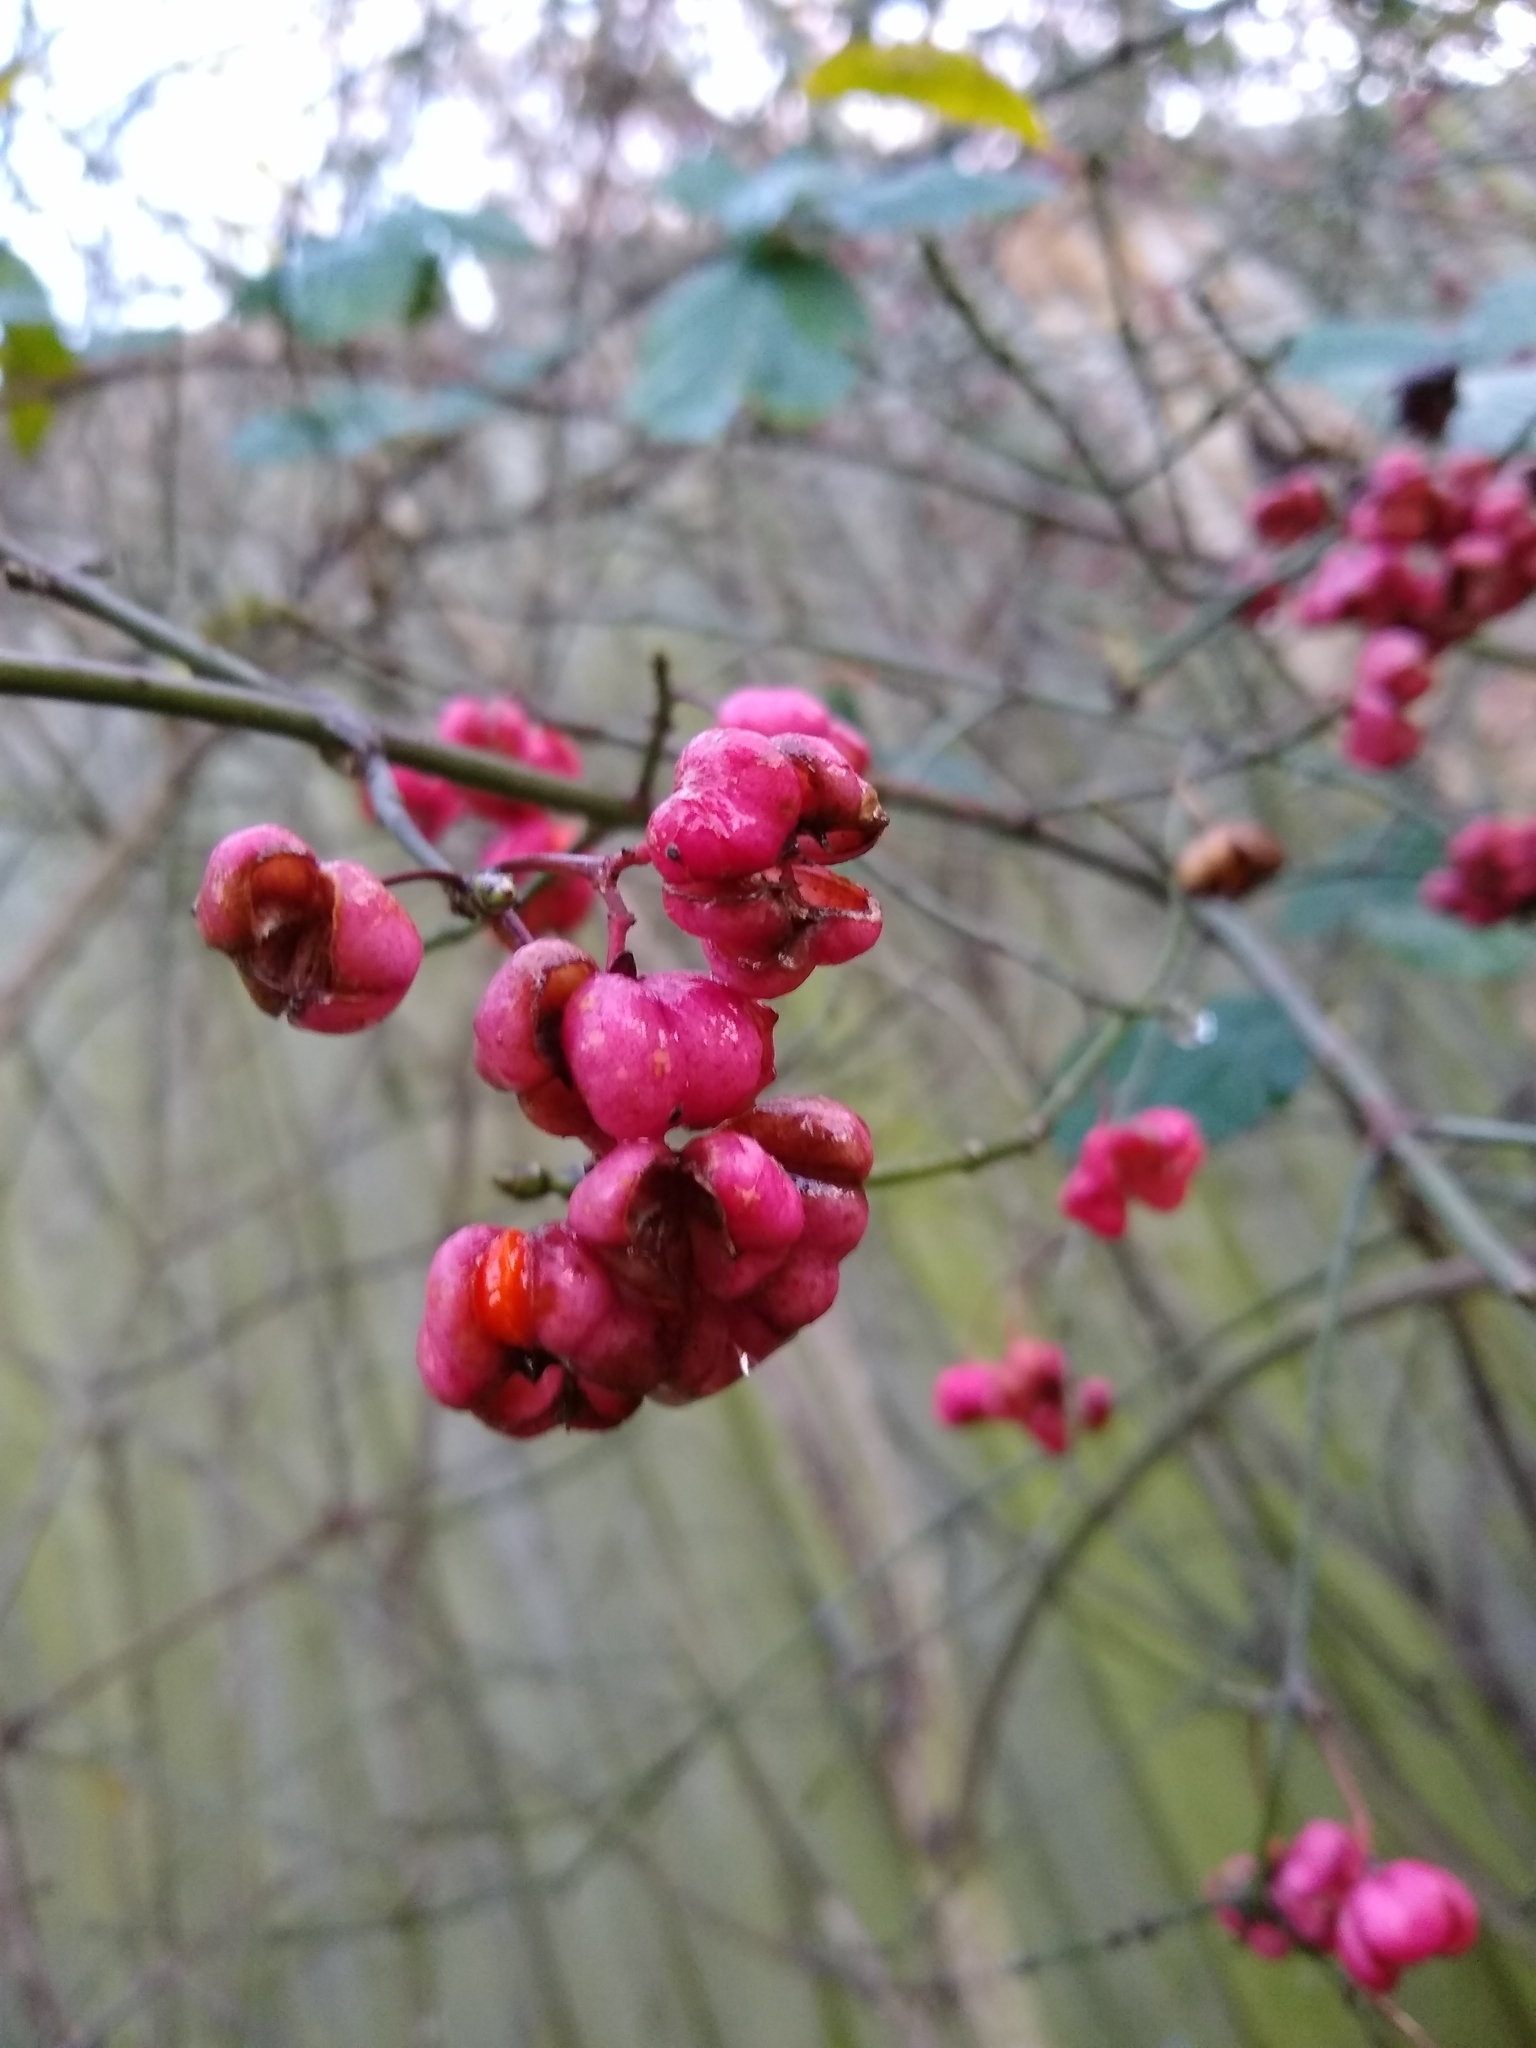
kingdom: Plantae
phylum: Tracheophyta
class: Magnoliopsida
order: Celastrales
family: Celastraceae
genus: Euonymus
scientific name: Euonymus europaeus
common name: Spindle
